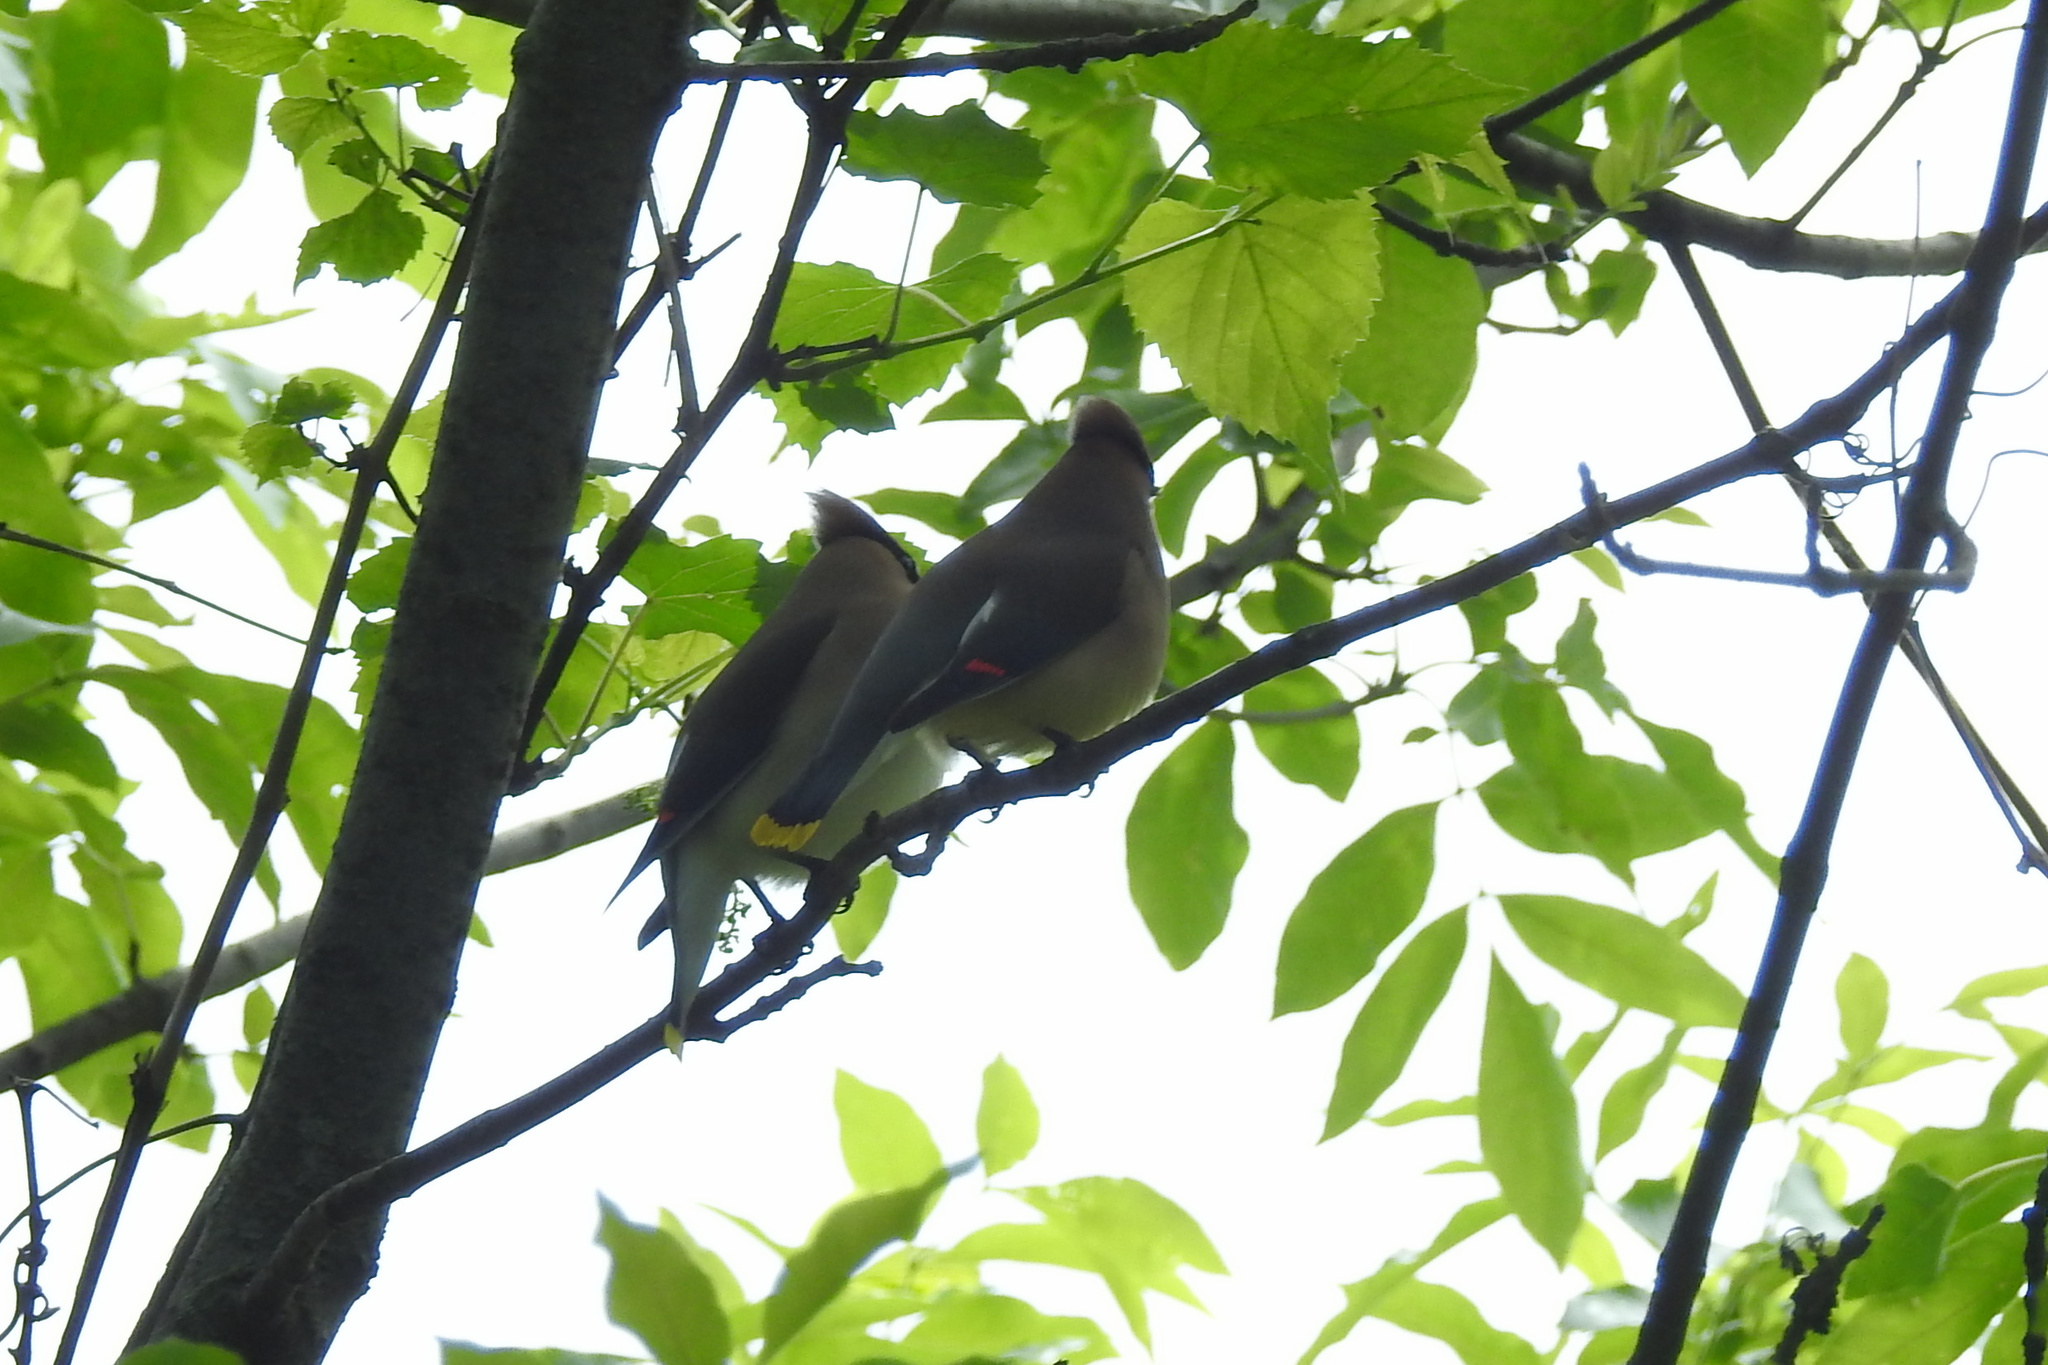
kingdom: Animalia
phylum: Chordata
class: Aves
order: Passeriformes
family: Bombycillidae
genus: Bombycilla
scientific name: Bombycilla cedrorum
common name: Cedar waxwing
